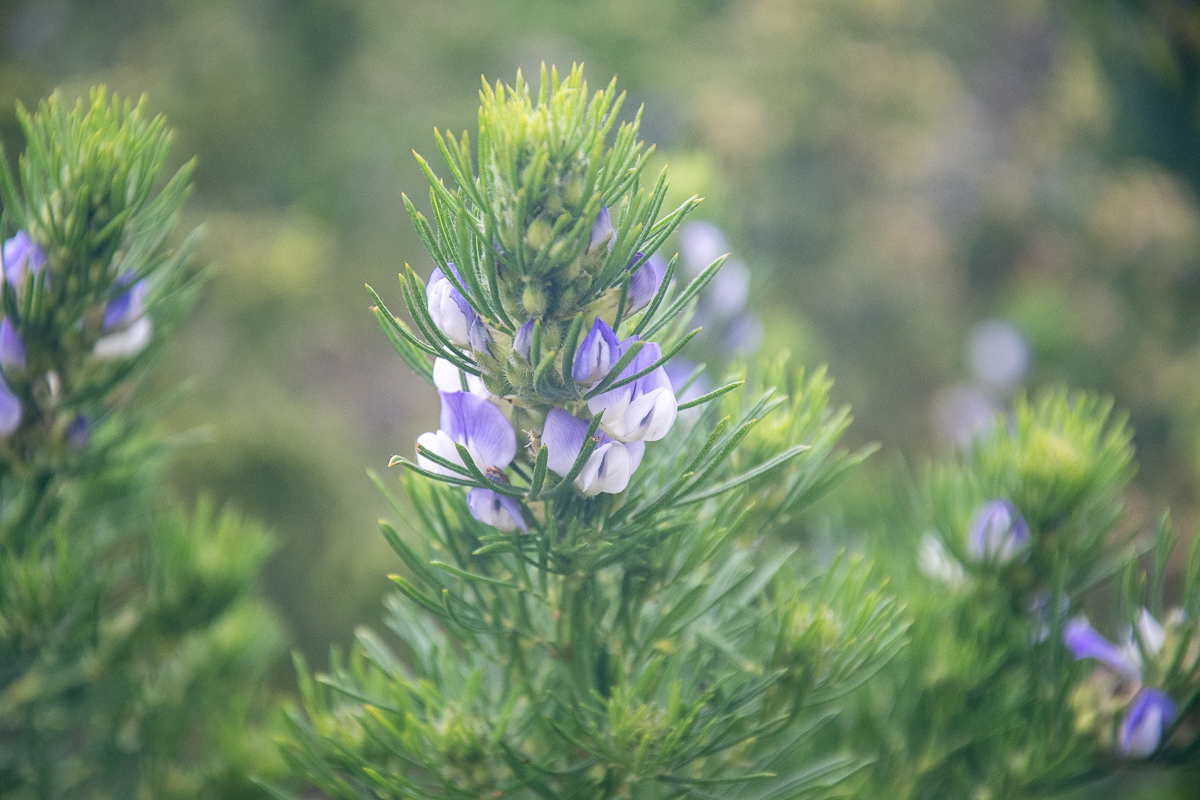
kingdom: Plantae
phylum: Tracheophyta
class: Magnoliopsida
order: Fabales
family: Fabaceae
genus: Psoralea
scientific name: Psoralea pinnata
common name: African scurfpea
